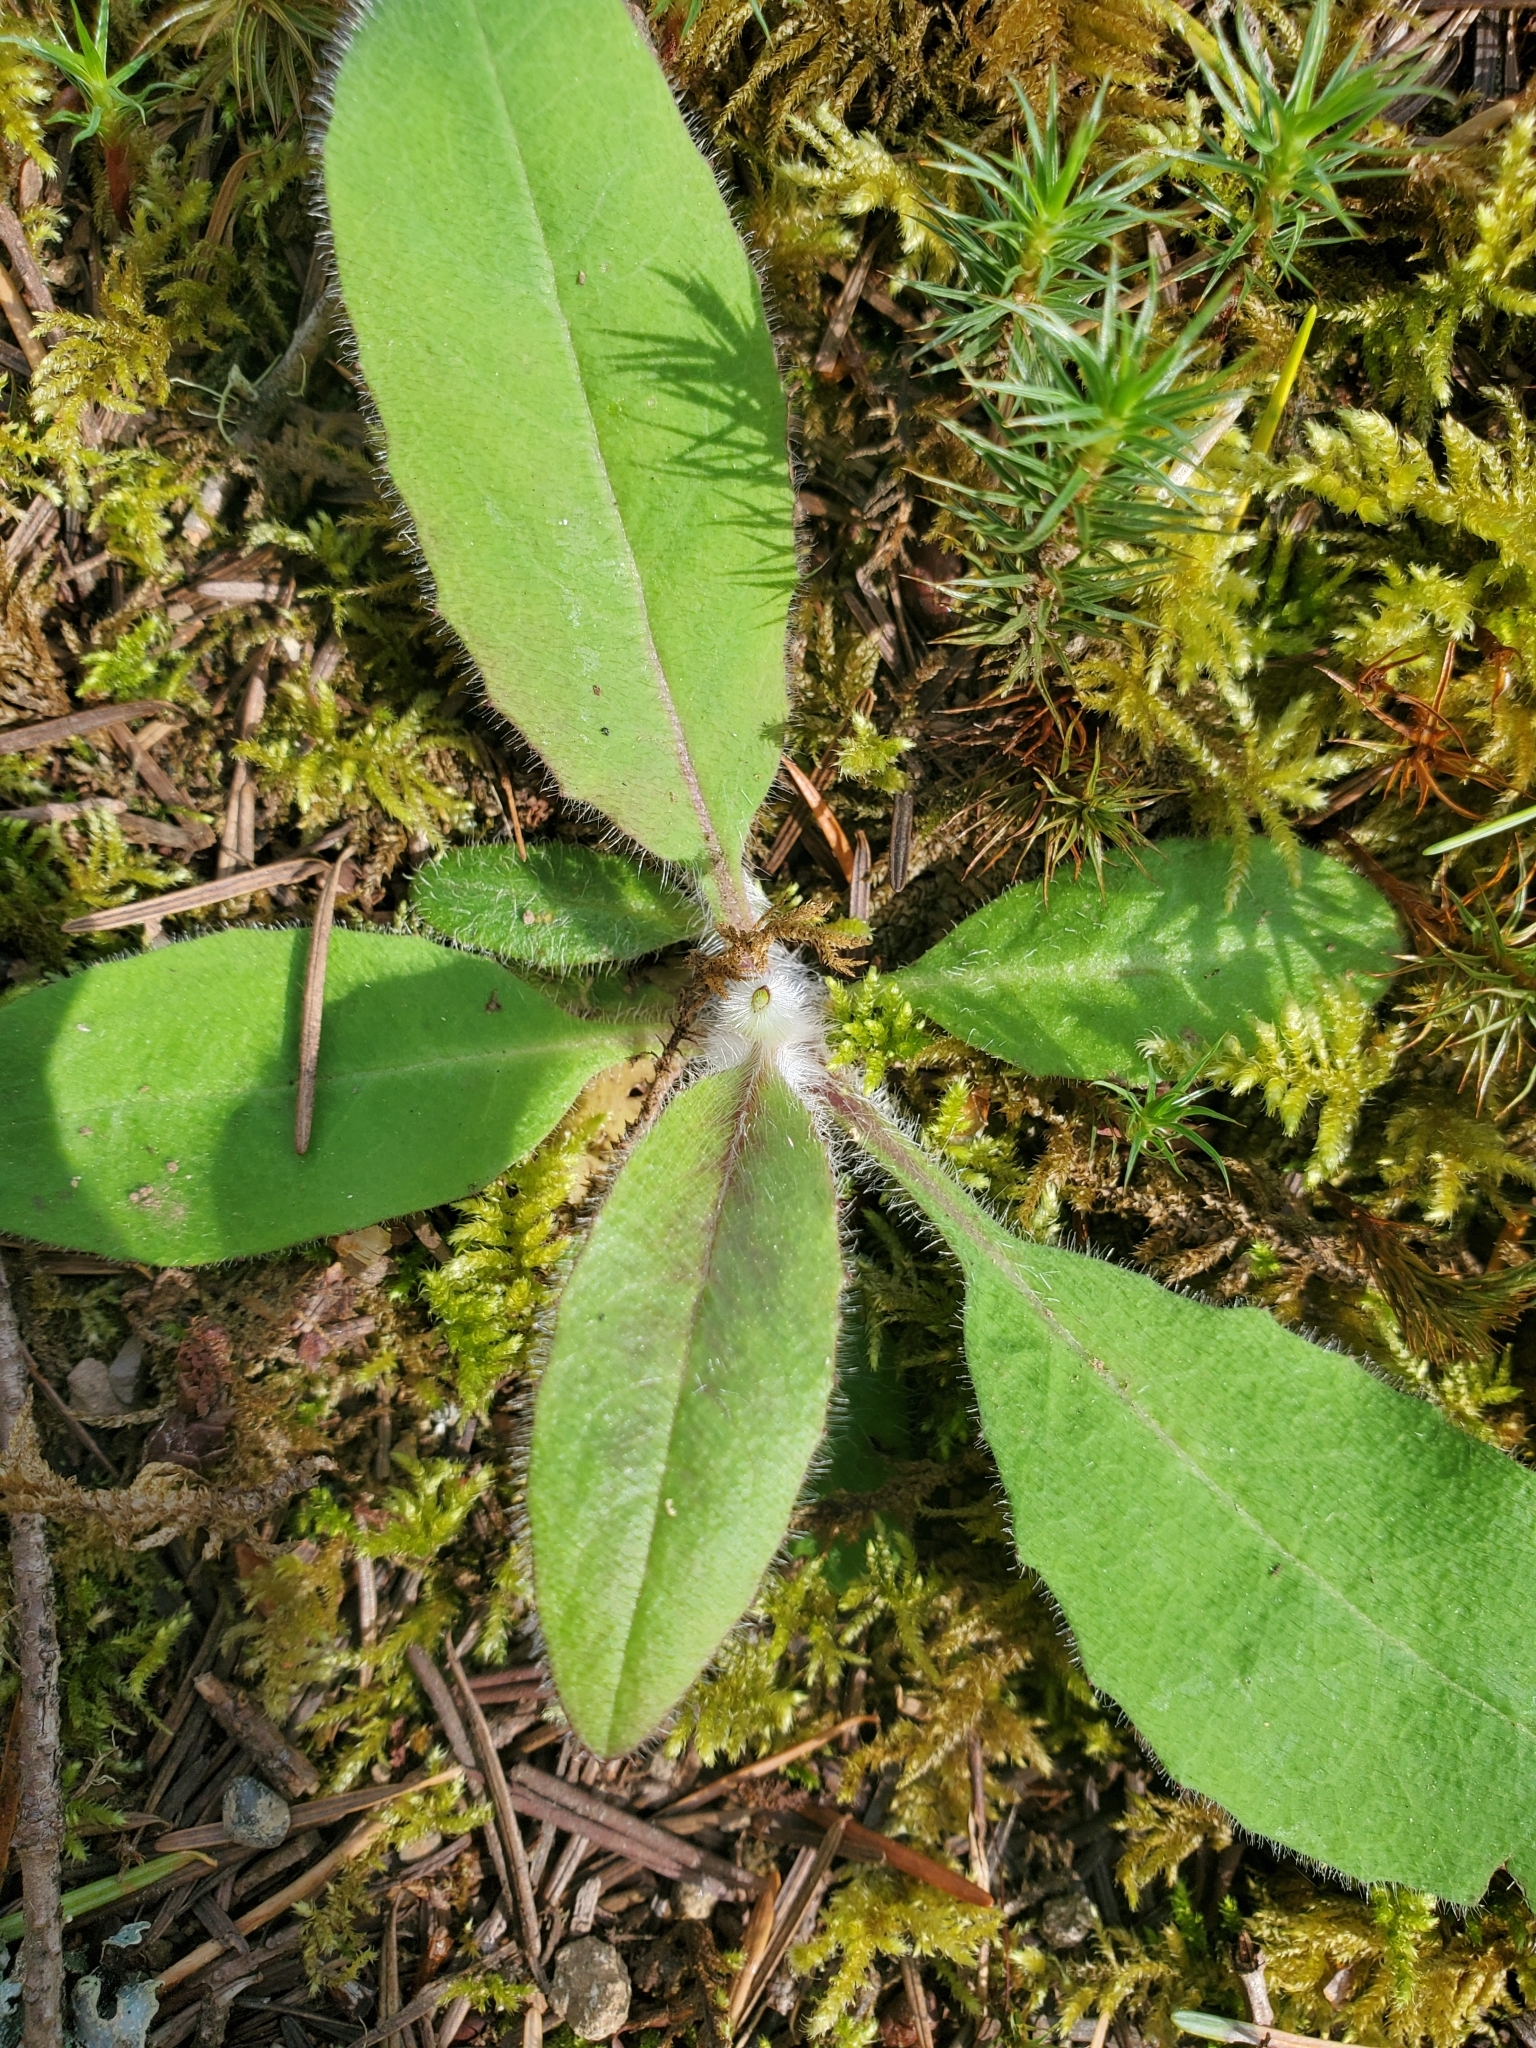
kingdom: Plantae
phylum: Tracheophyta
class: Magnoliopsida
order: Asterales
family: Asteraceae
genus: Hieracium
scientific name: Hieracium albiflorum
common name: White hawkweed
